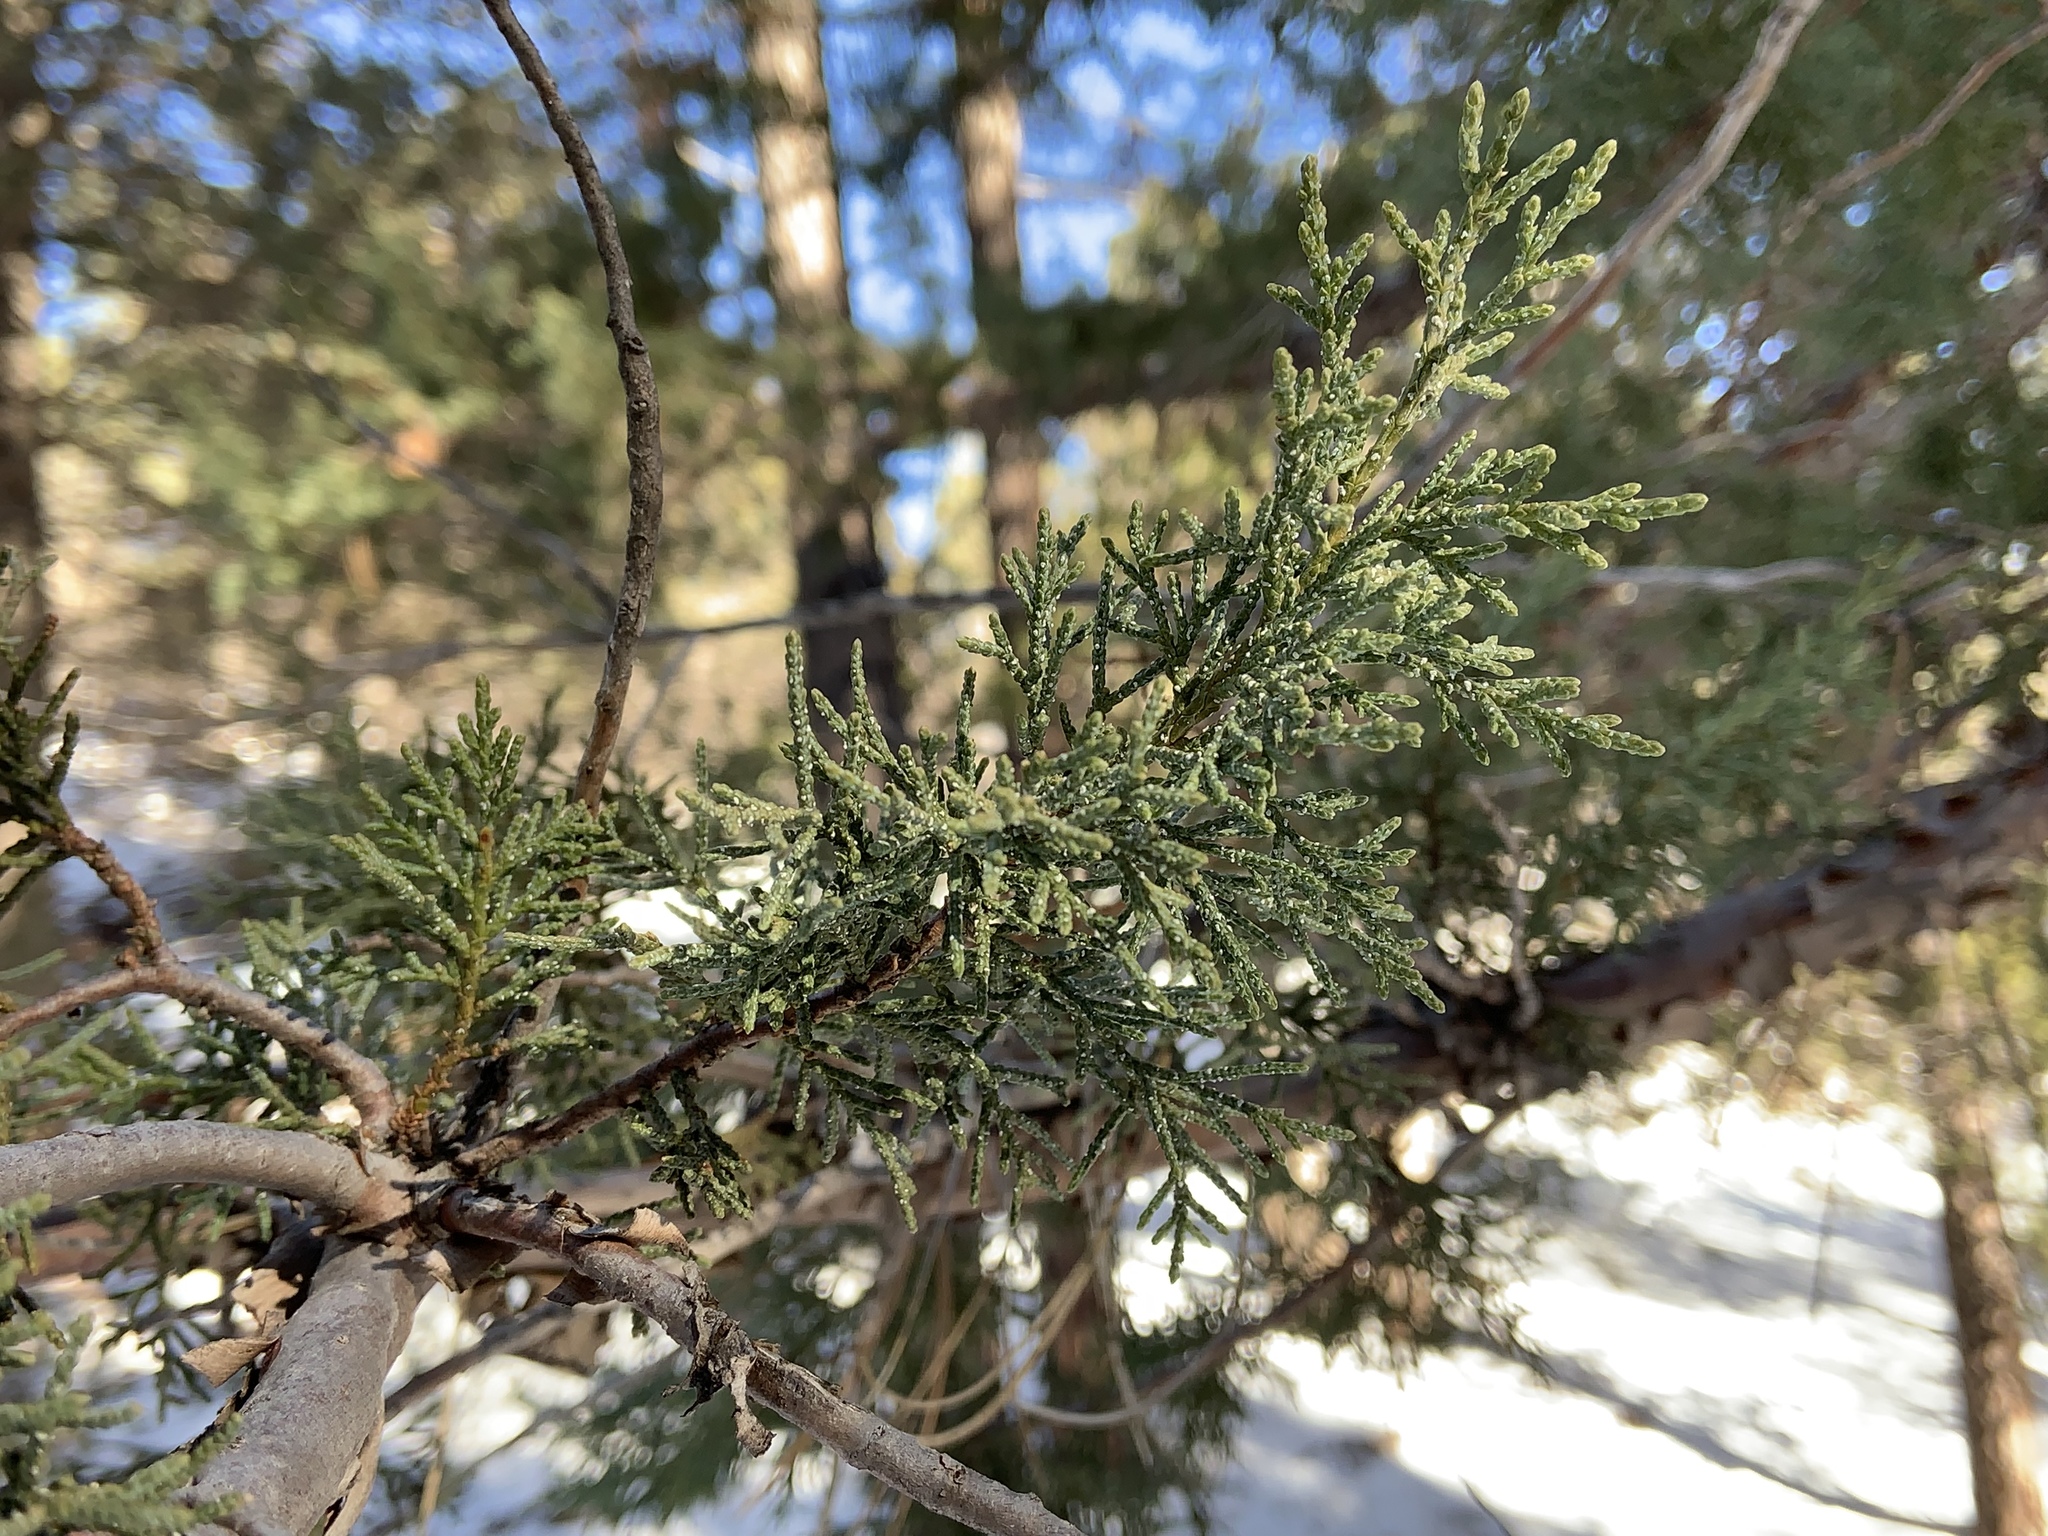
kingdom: Plantae
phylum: Tracheophyta
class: Pinopsida
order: Pinales
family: Cupressaceae
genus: Juniperus
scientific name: Juniperus deppeana
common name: Alligator juniper
